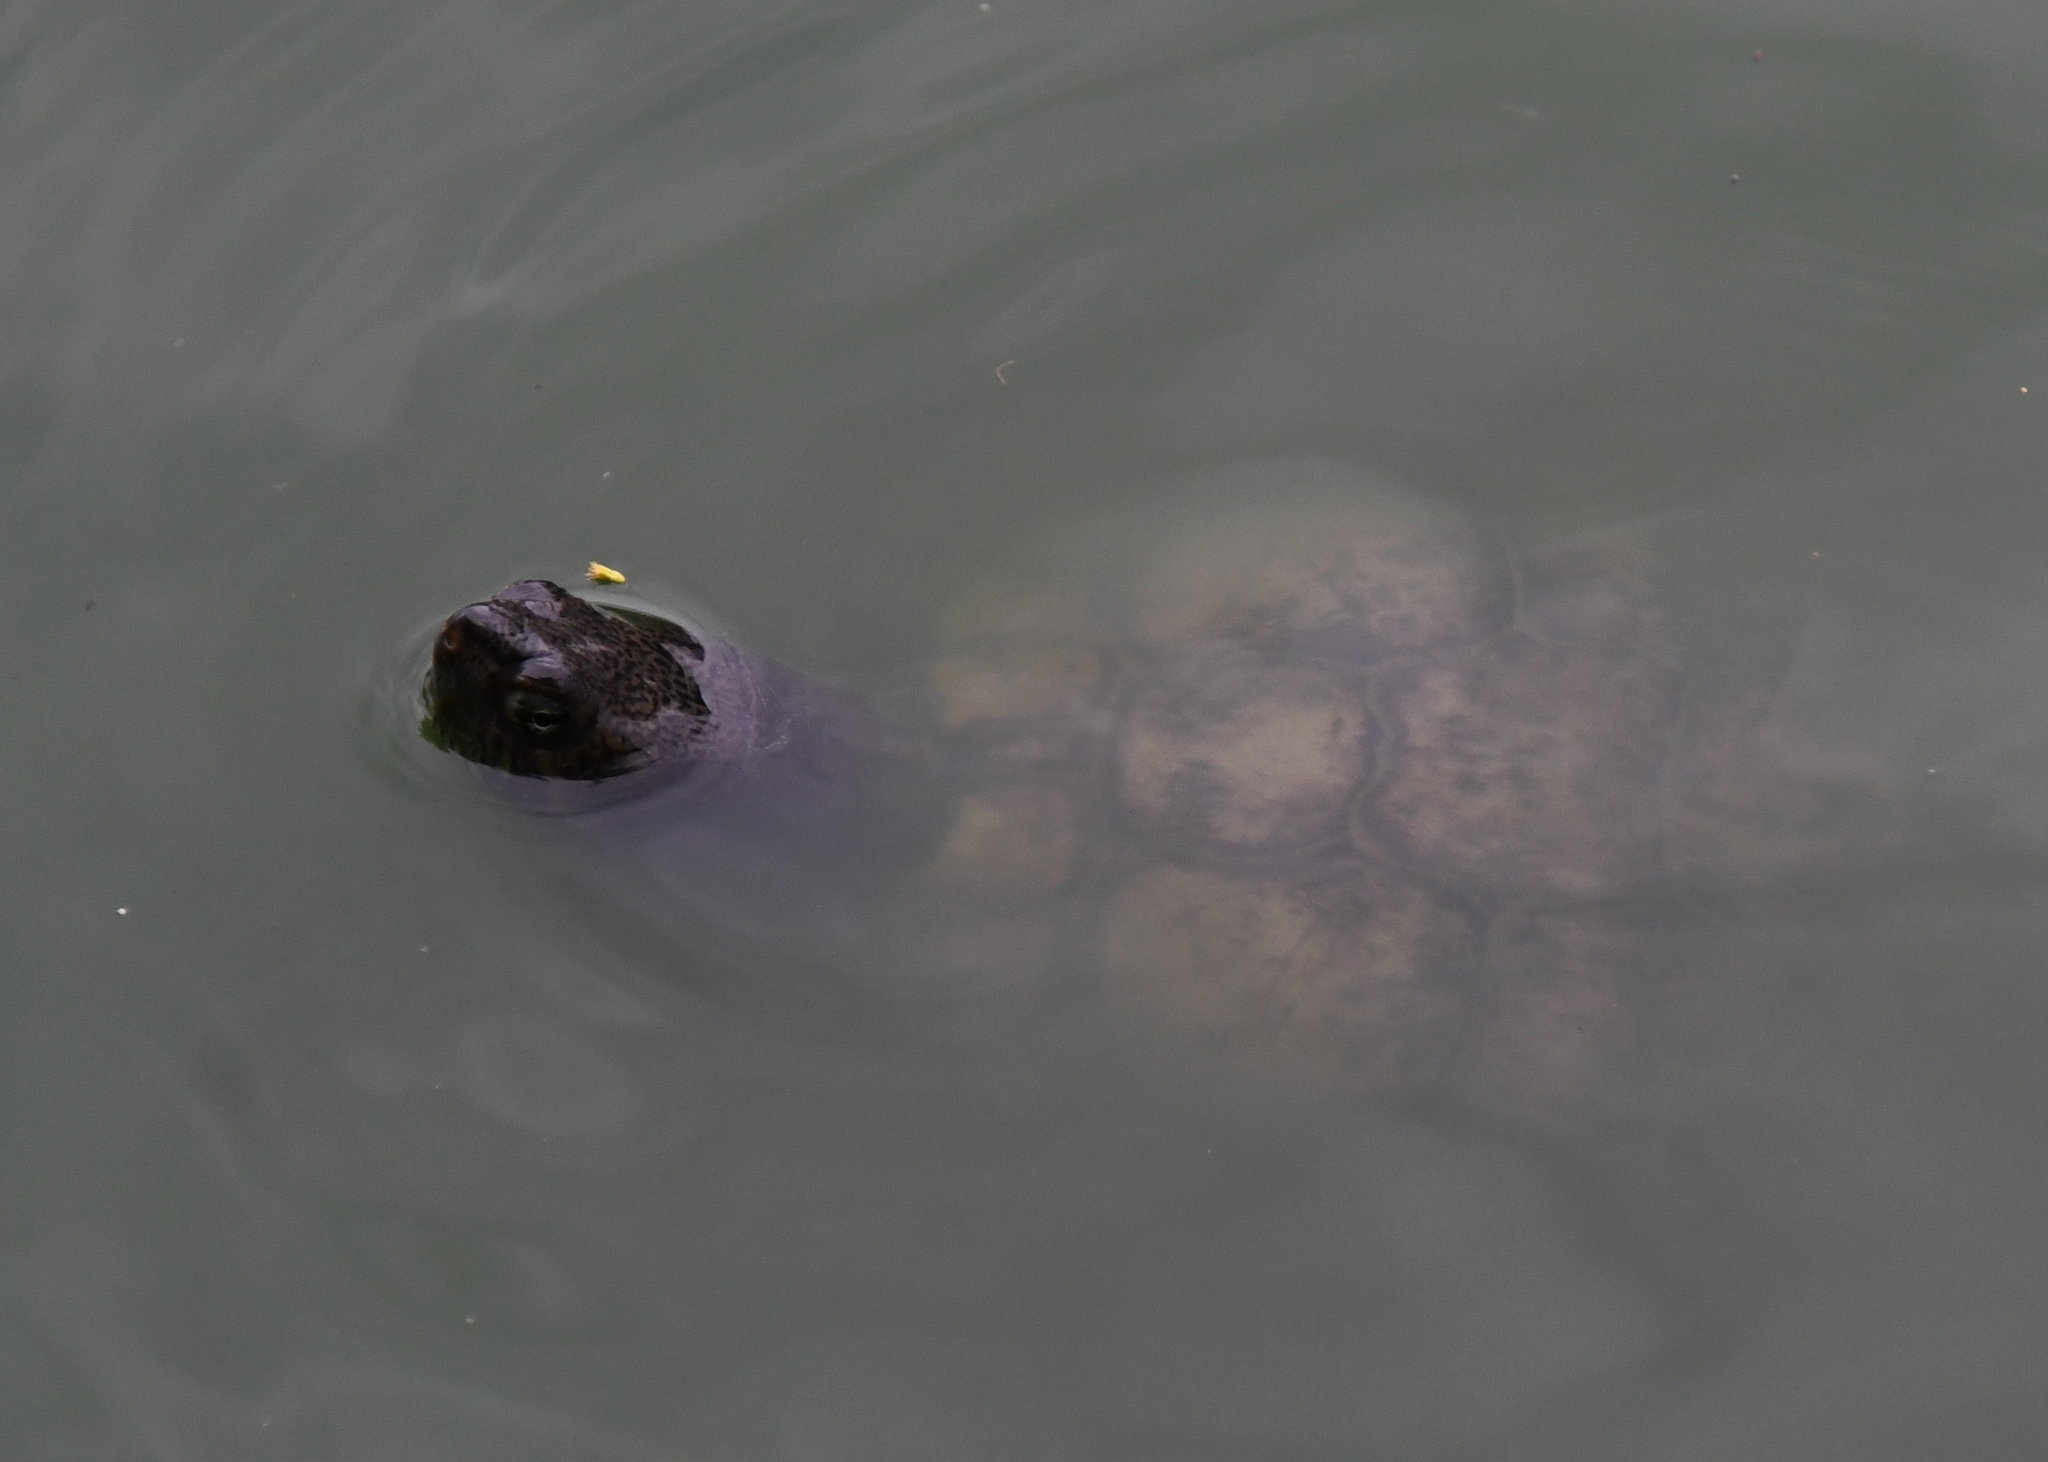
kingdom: Animalia
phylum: Chordata
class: Testudines
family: Emydidae
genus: Trachemys
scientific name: Trachemys scripta
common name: Slider
